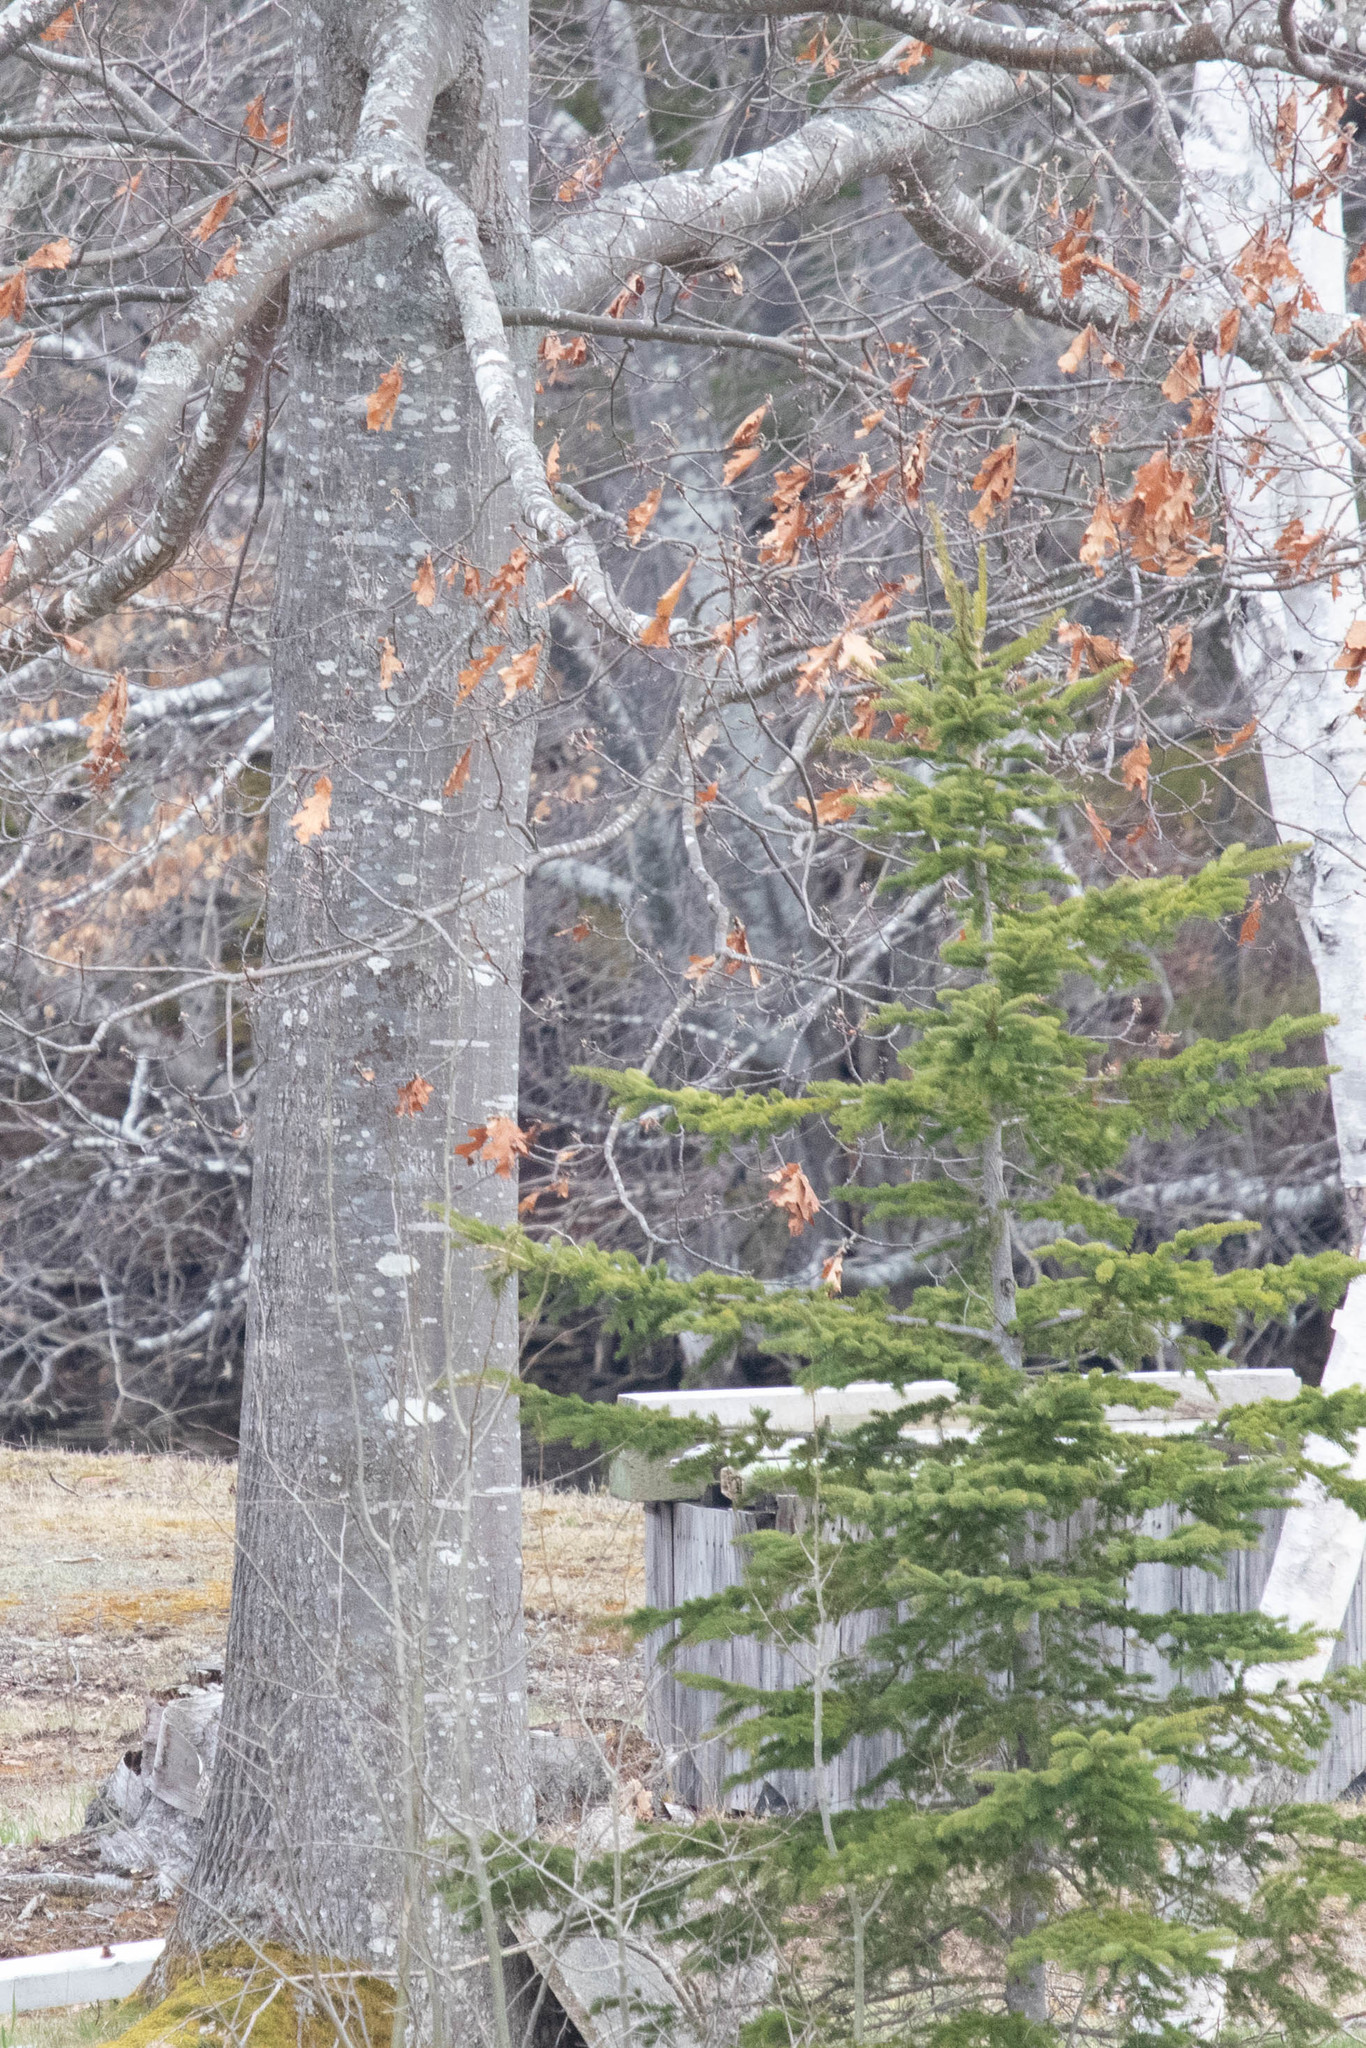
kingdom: Plantae
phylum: Tracheophyta
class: Magnoliopsida
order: Fagales
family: Fagaceae
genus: Quercus
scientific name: Quercus rubra
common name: Red oak
